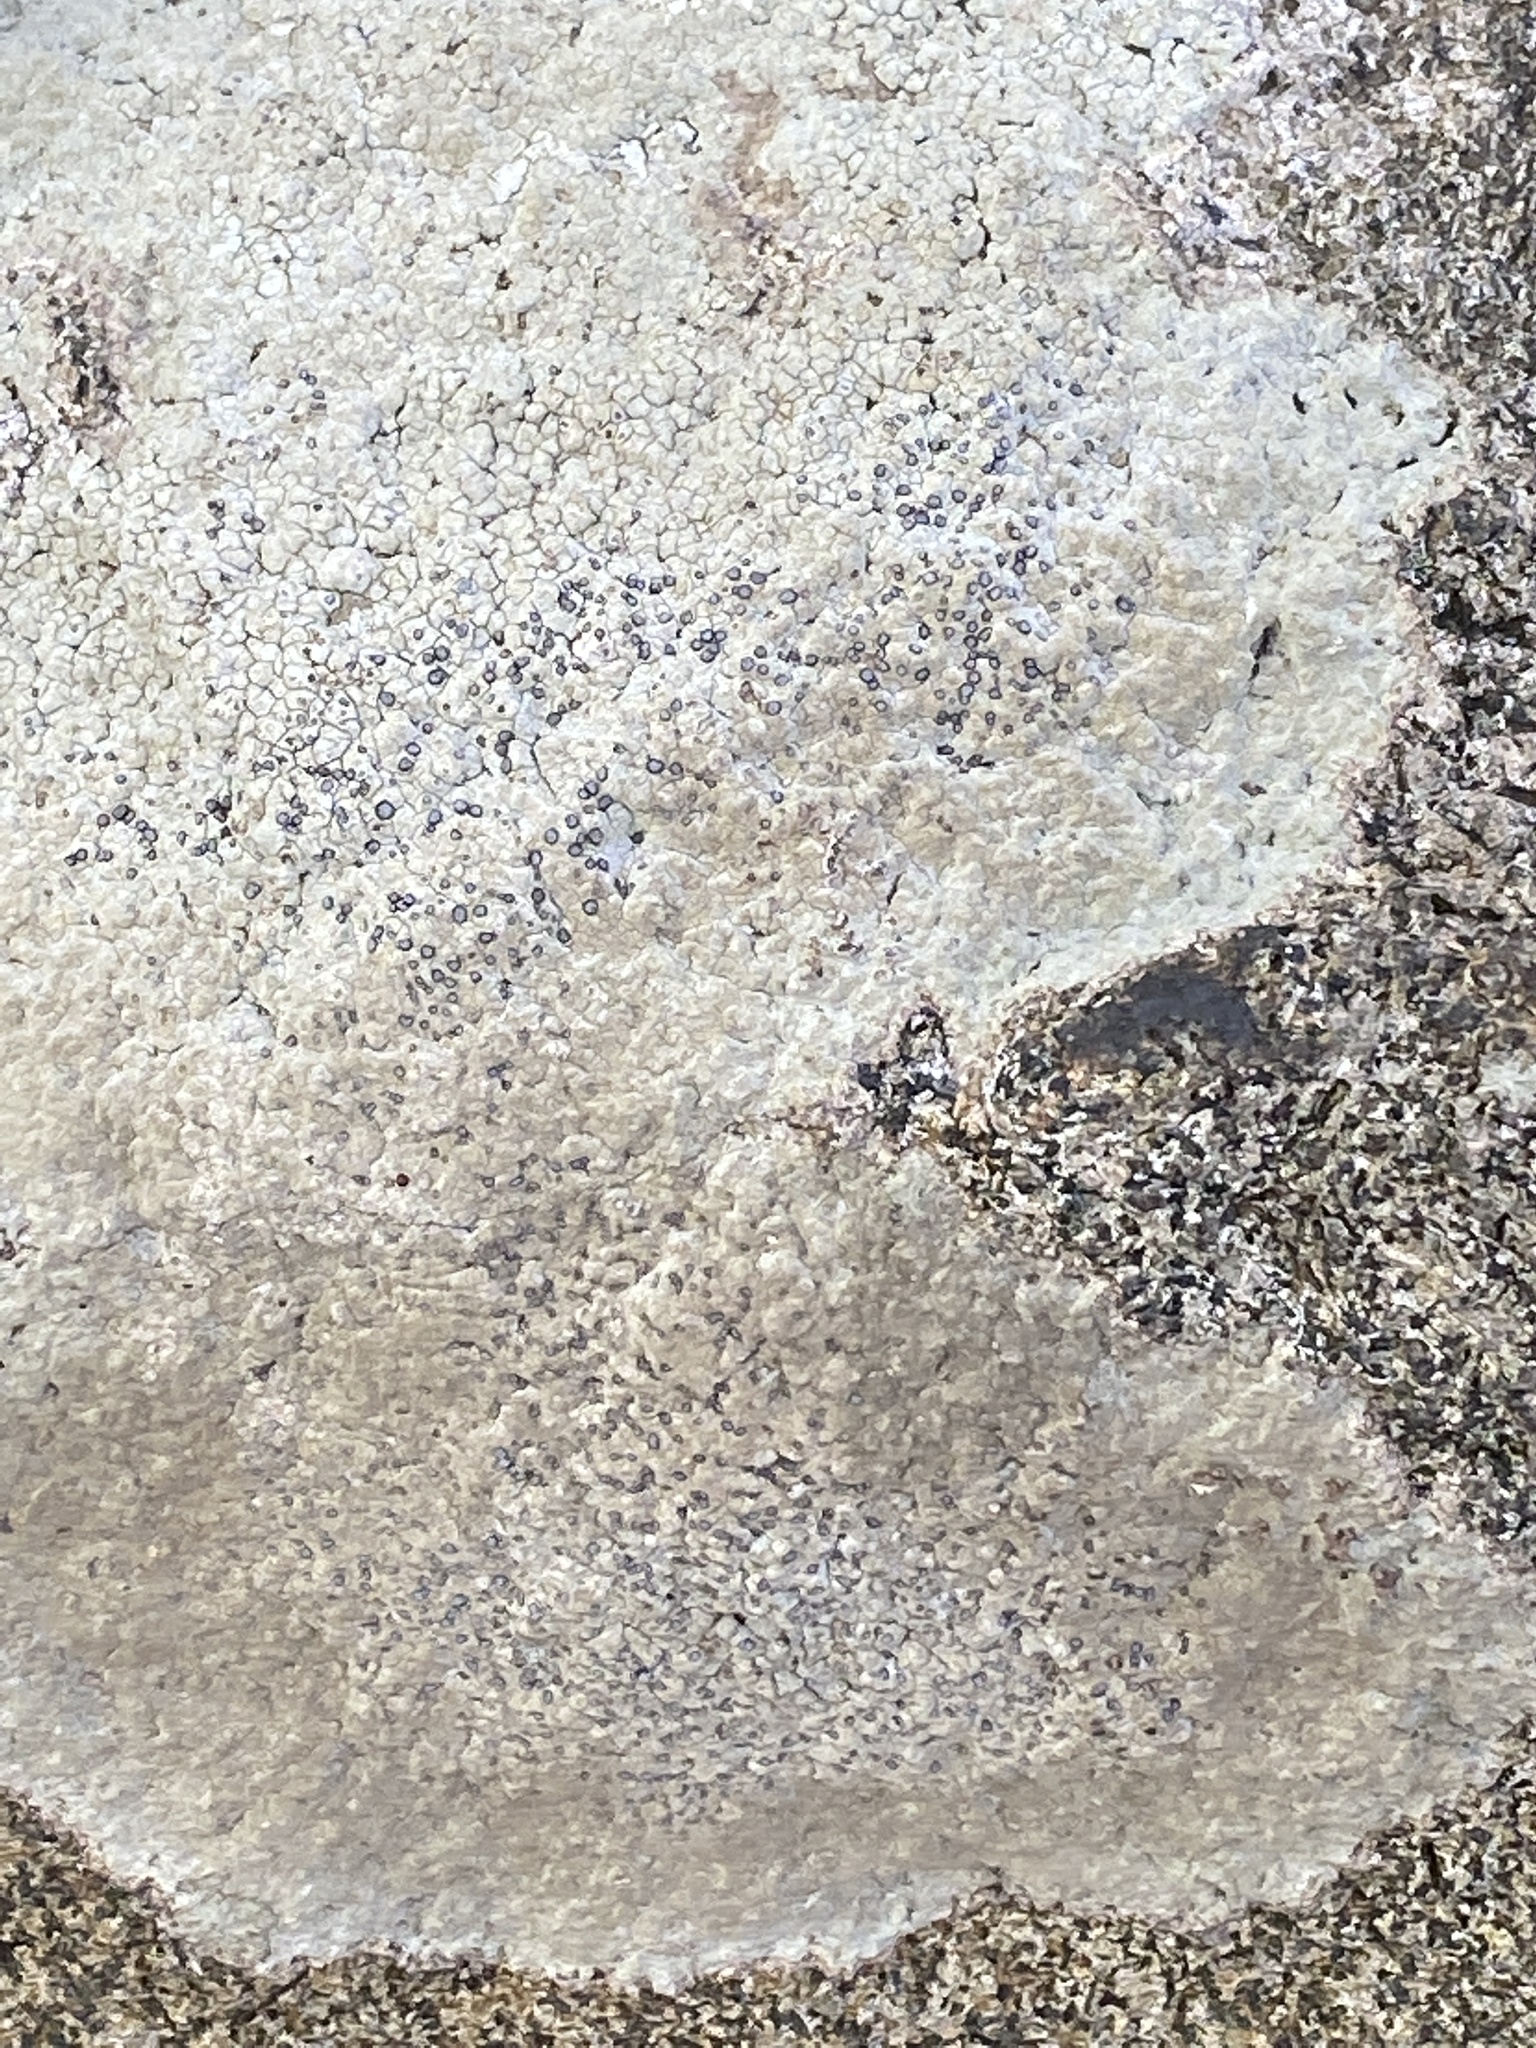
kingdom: Fungi
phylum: Ascomycota
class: Lecanoromycetes
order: Lecideales
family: Lecideaceae
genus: Porpidia
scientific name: Porpidia albocaerulescens
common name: Smokey-eyed boulder lichen
